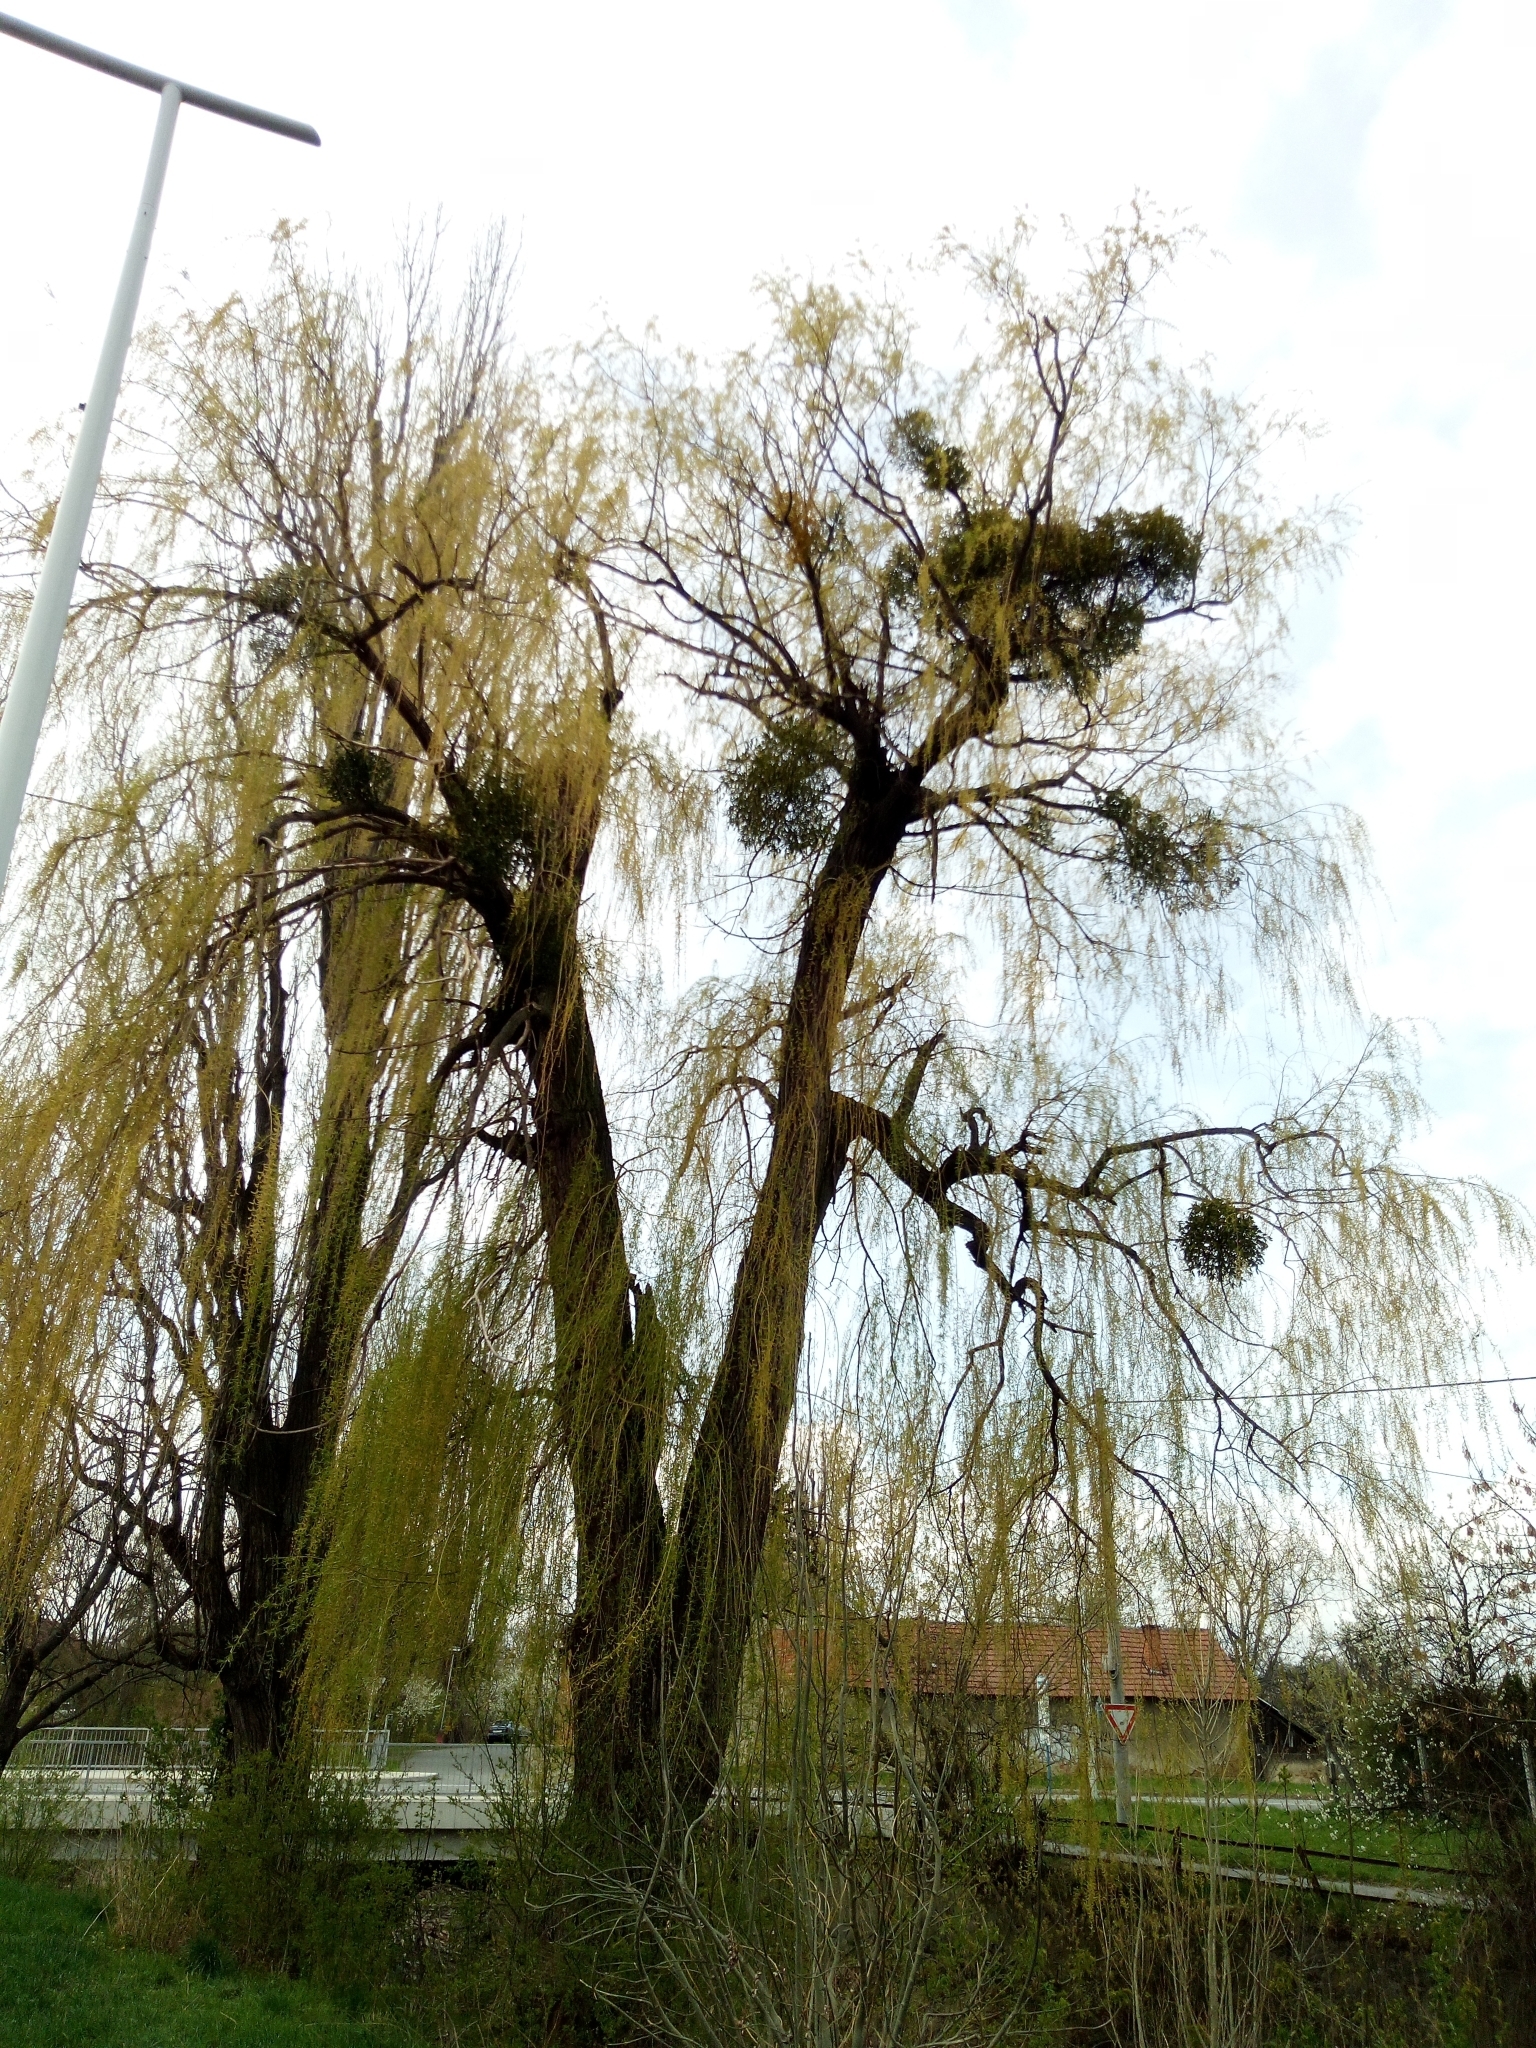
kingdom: Plantae
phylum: Tracheophyta
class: Magnoliopsida
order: Santalales
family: Viscaceae
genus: Viscum
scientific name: Viscum album
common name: Mistletoe
